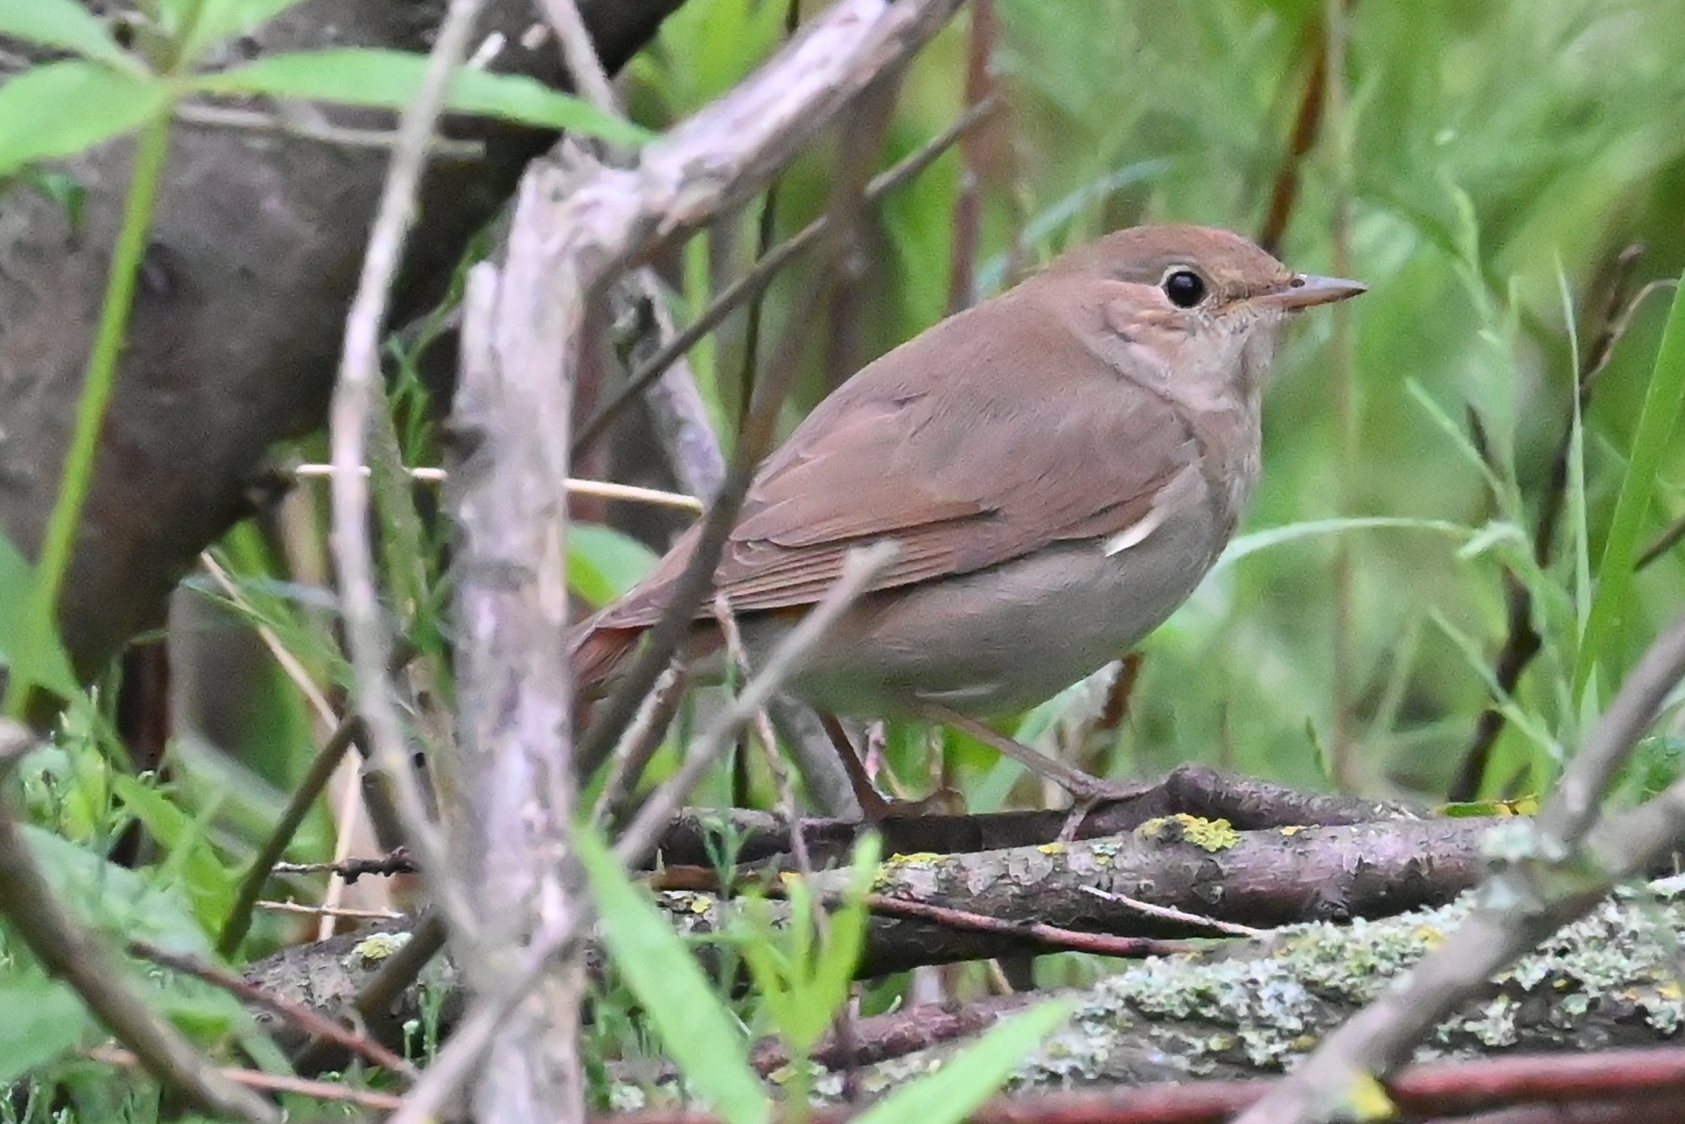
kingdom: Animalia
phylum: Chordata
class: Aves
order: Passeriformes
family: Muscicapidae
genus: Luscinia
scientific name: Luscinia megarhynchos
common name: Common nightingale
